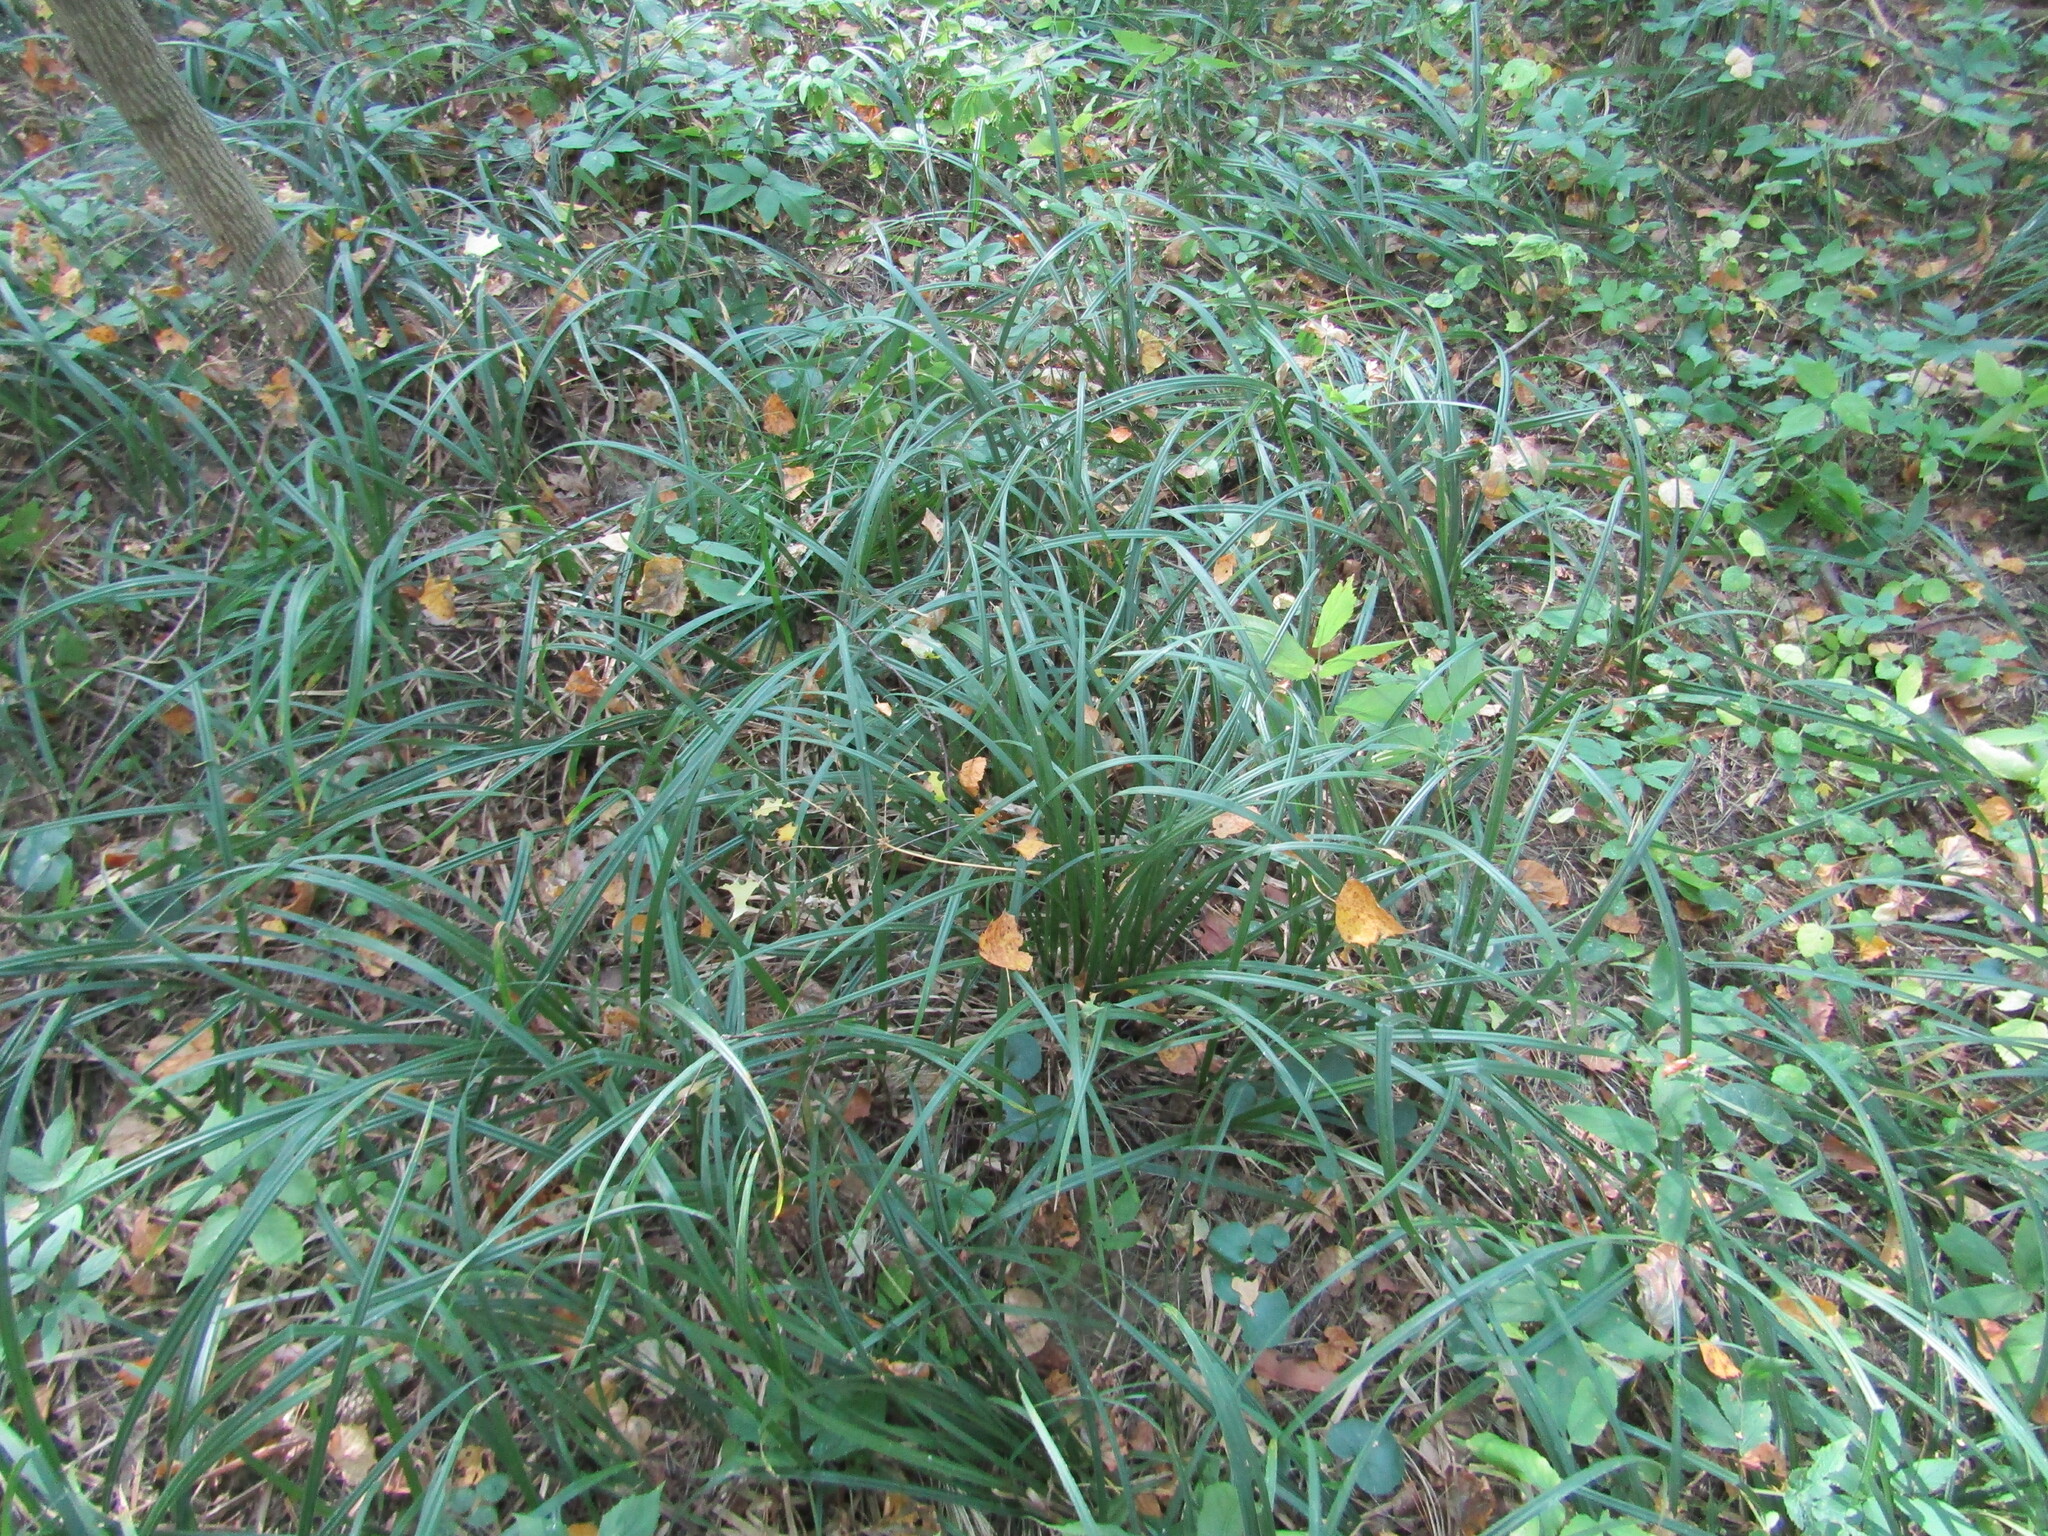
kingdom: Plantae
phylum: Tracheophyta
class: Liliopsida
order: Poales
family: Cyperaceae
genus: Carex
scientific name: Carex pilosa
